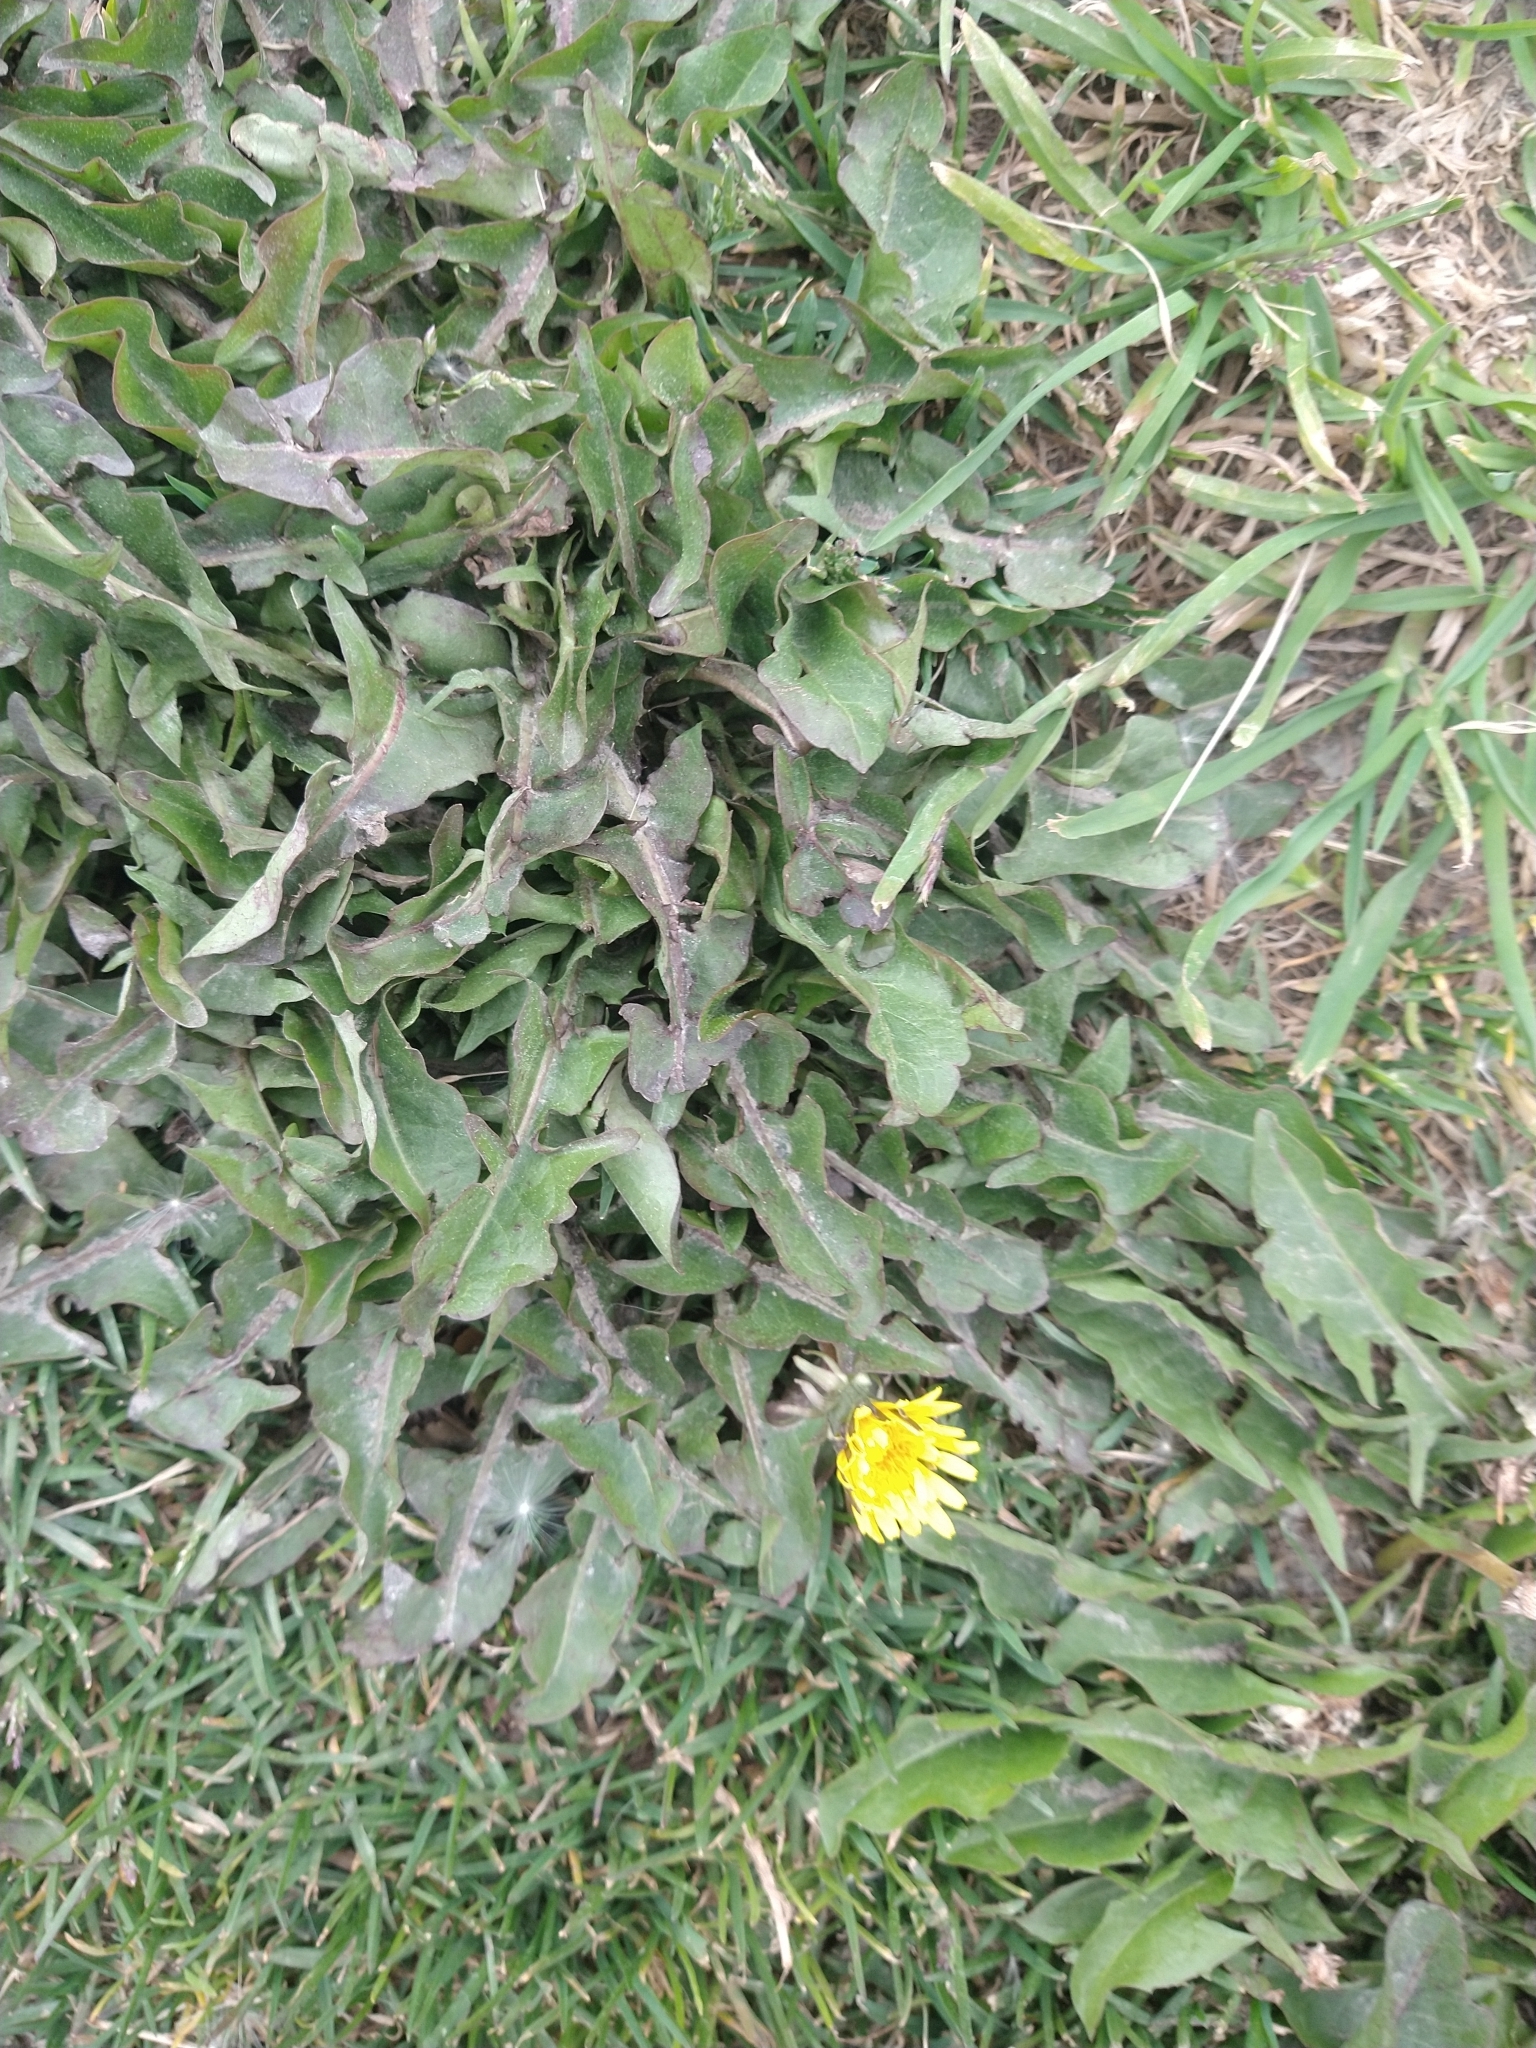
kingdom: Plantae
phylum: Tracheophyta
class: Magnoliopsida
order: Asterales
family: Asteraceae
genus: Taraxacum
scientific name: Taraxacum officinale
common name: Common dandelion
